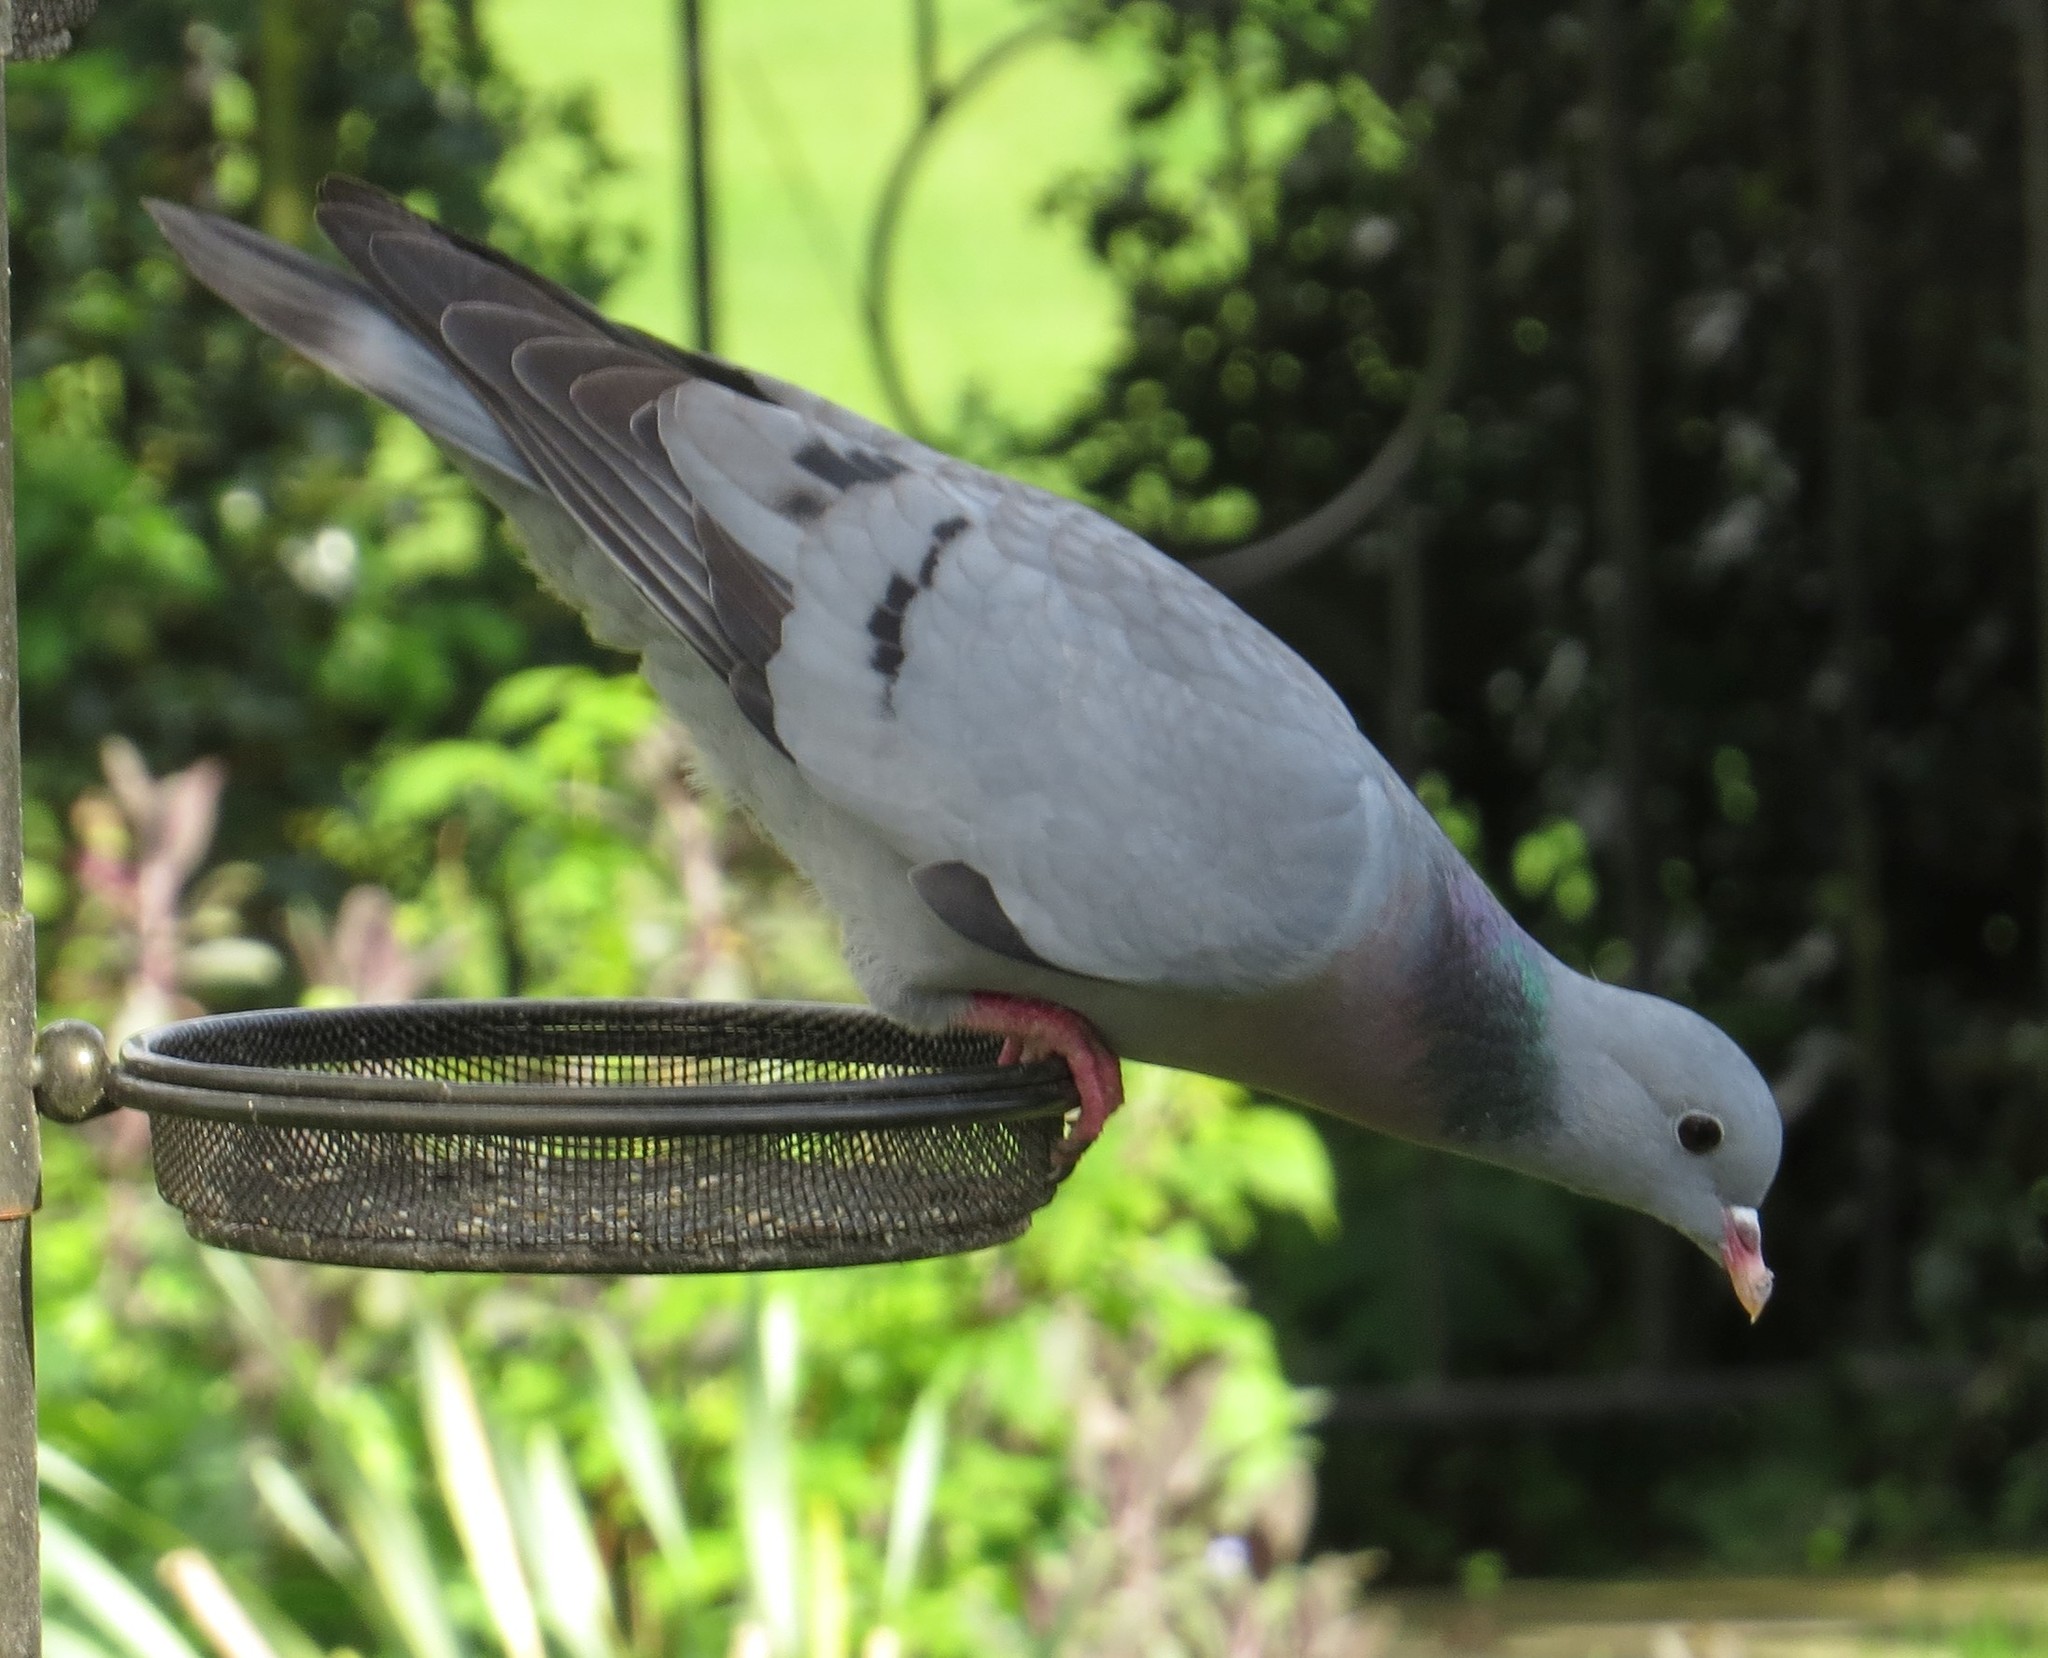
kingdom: Animalia
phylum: Chordata
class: Aves
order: Columbiformes
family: Columbidae
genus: Columba
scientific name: Columba oenas
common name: Stock dove
